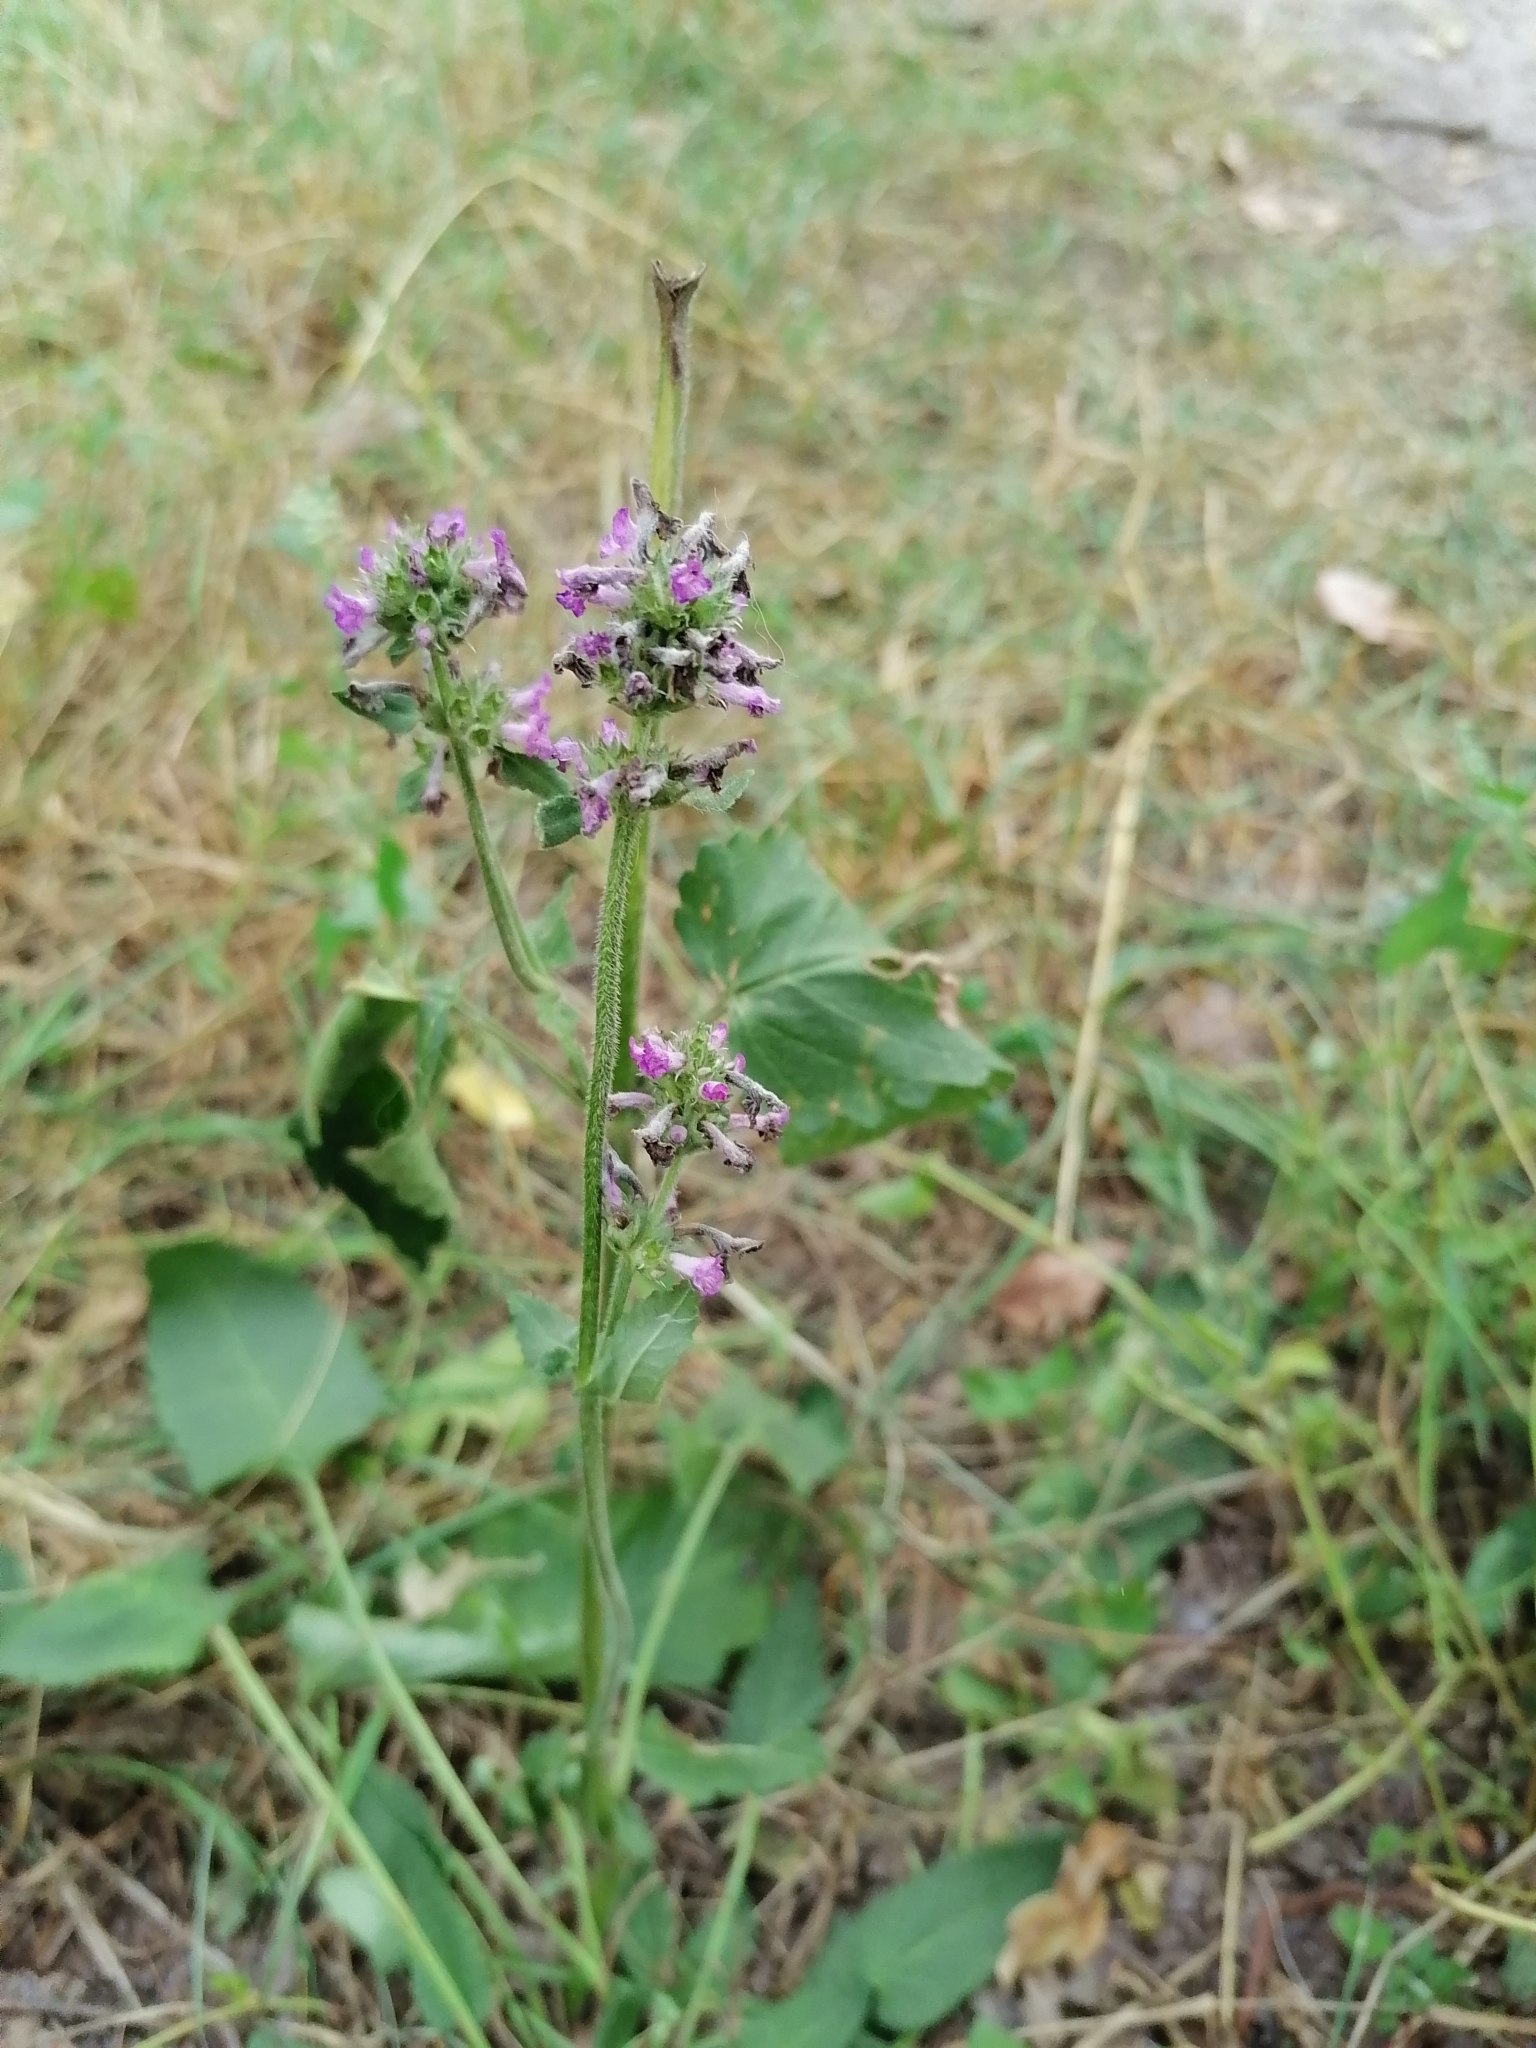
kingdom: Plantae
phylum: Tracheophyta
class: Magnoliopsida
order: Lamiales
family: Lamiaceae
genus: Betonica
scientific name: Betonica officinalis
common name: Bishop's-wort
